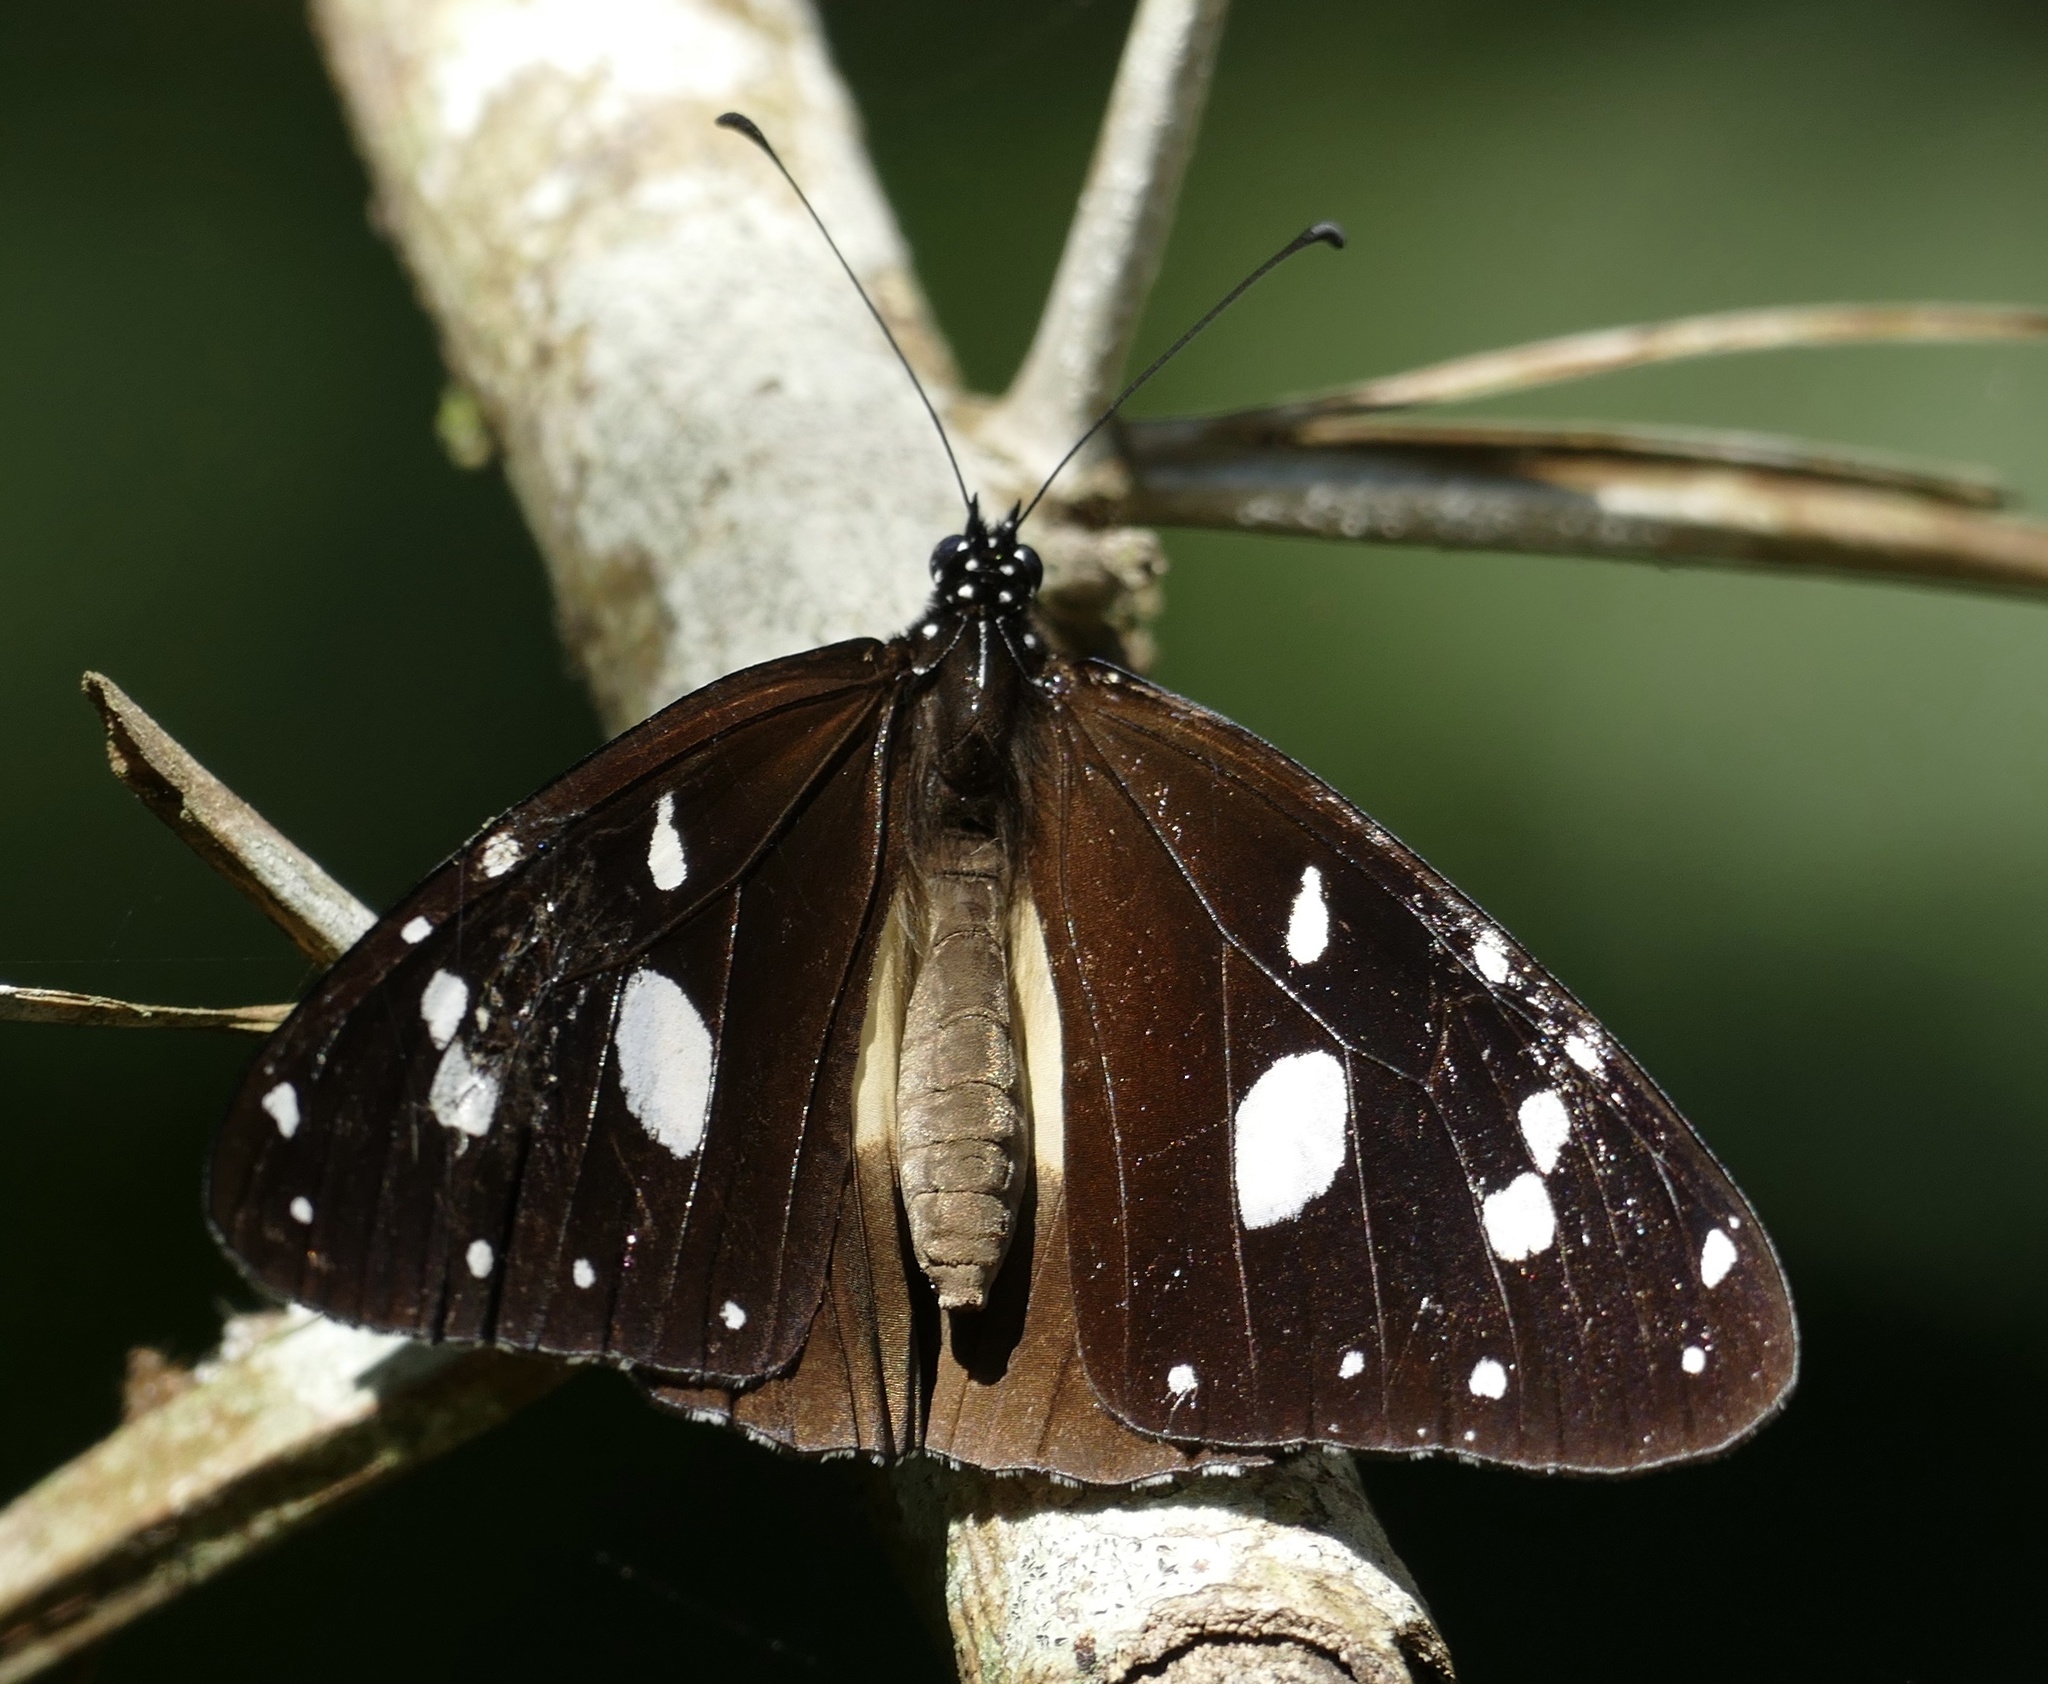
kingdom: Animalia
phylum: Arthropoda
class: Insecta
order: Lepidoptera
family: Nymphalidae
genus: Amauris
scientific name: Amauris albimaculata
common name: Layman
